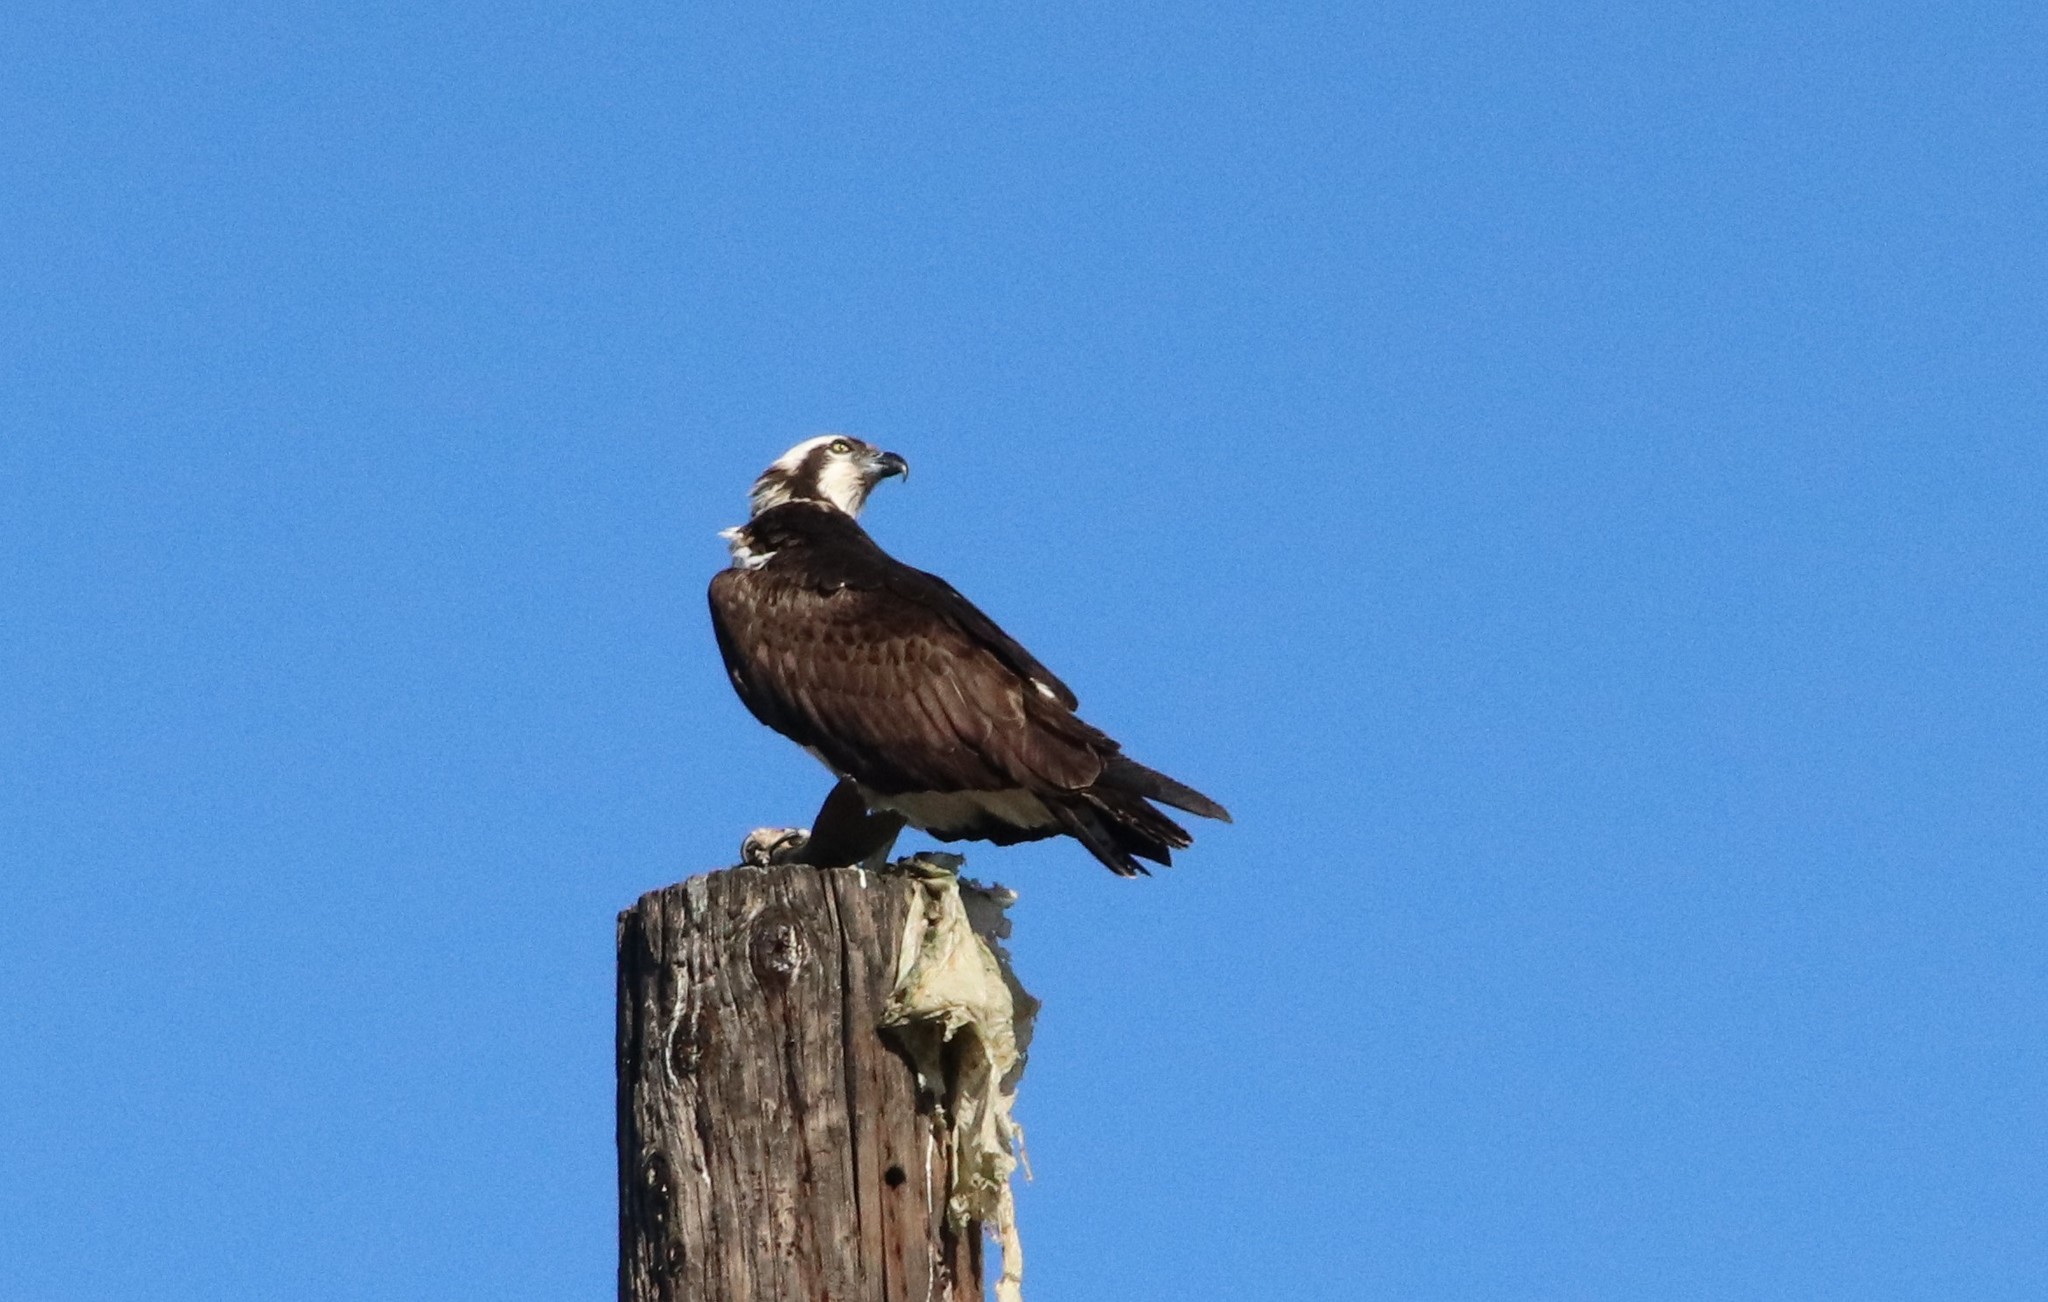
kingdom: Animalia
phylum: Chordata
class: Aves
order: Accipitriformes
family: Pandionidae
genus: Pandion
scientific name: Pandion haliaetus
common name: Osprey
